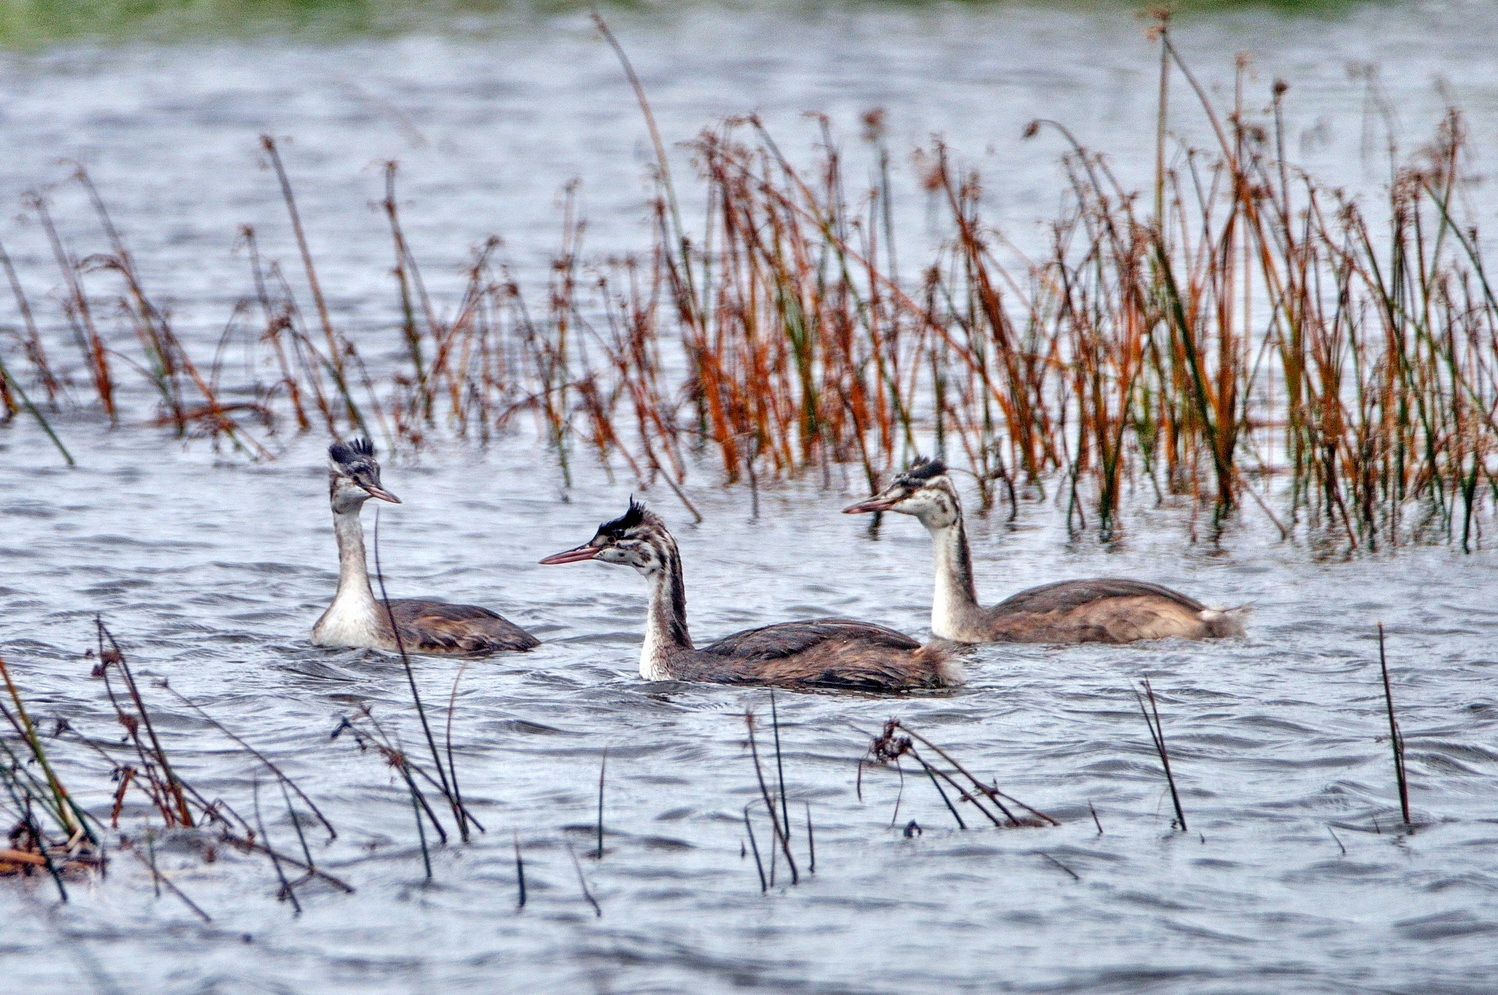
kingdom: Animalia
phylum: Chordata
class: Aves
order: Podicipediformes
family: Podicipedidae
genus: Podiceps
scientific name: Podiceps cristatus
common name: Great crested grebe
